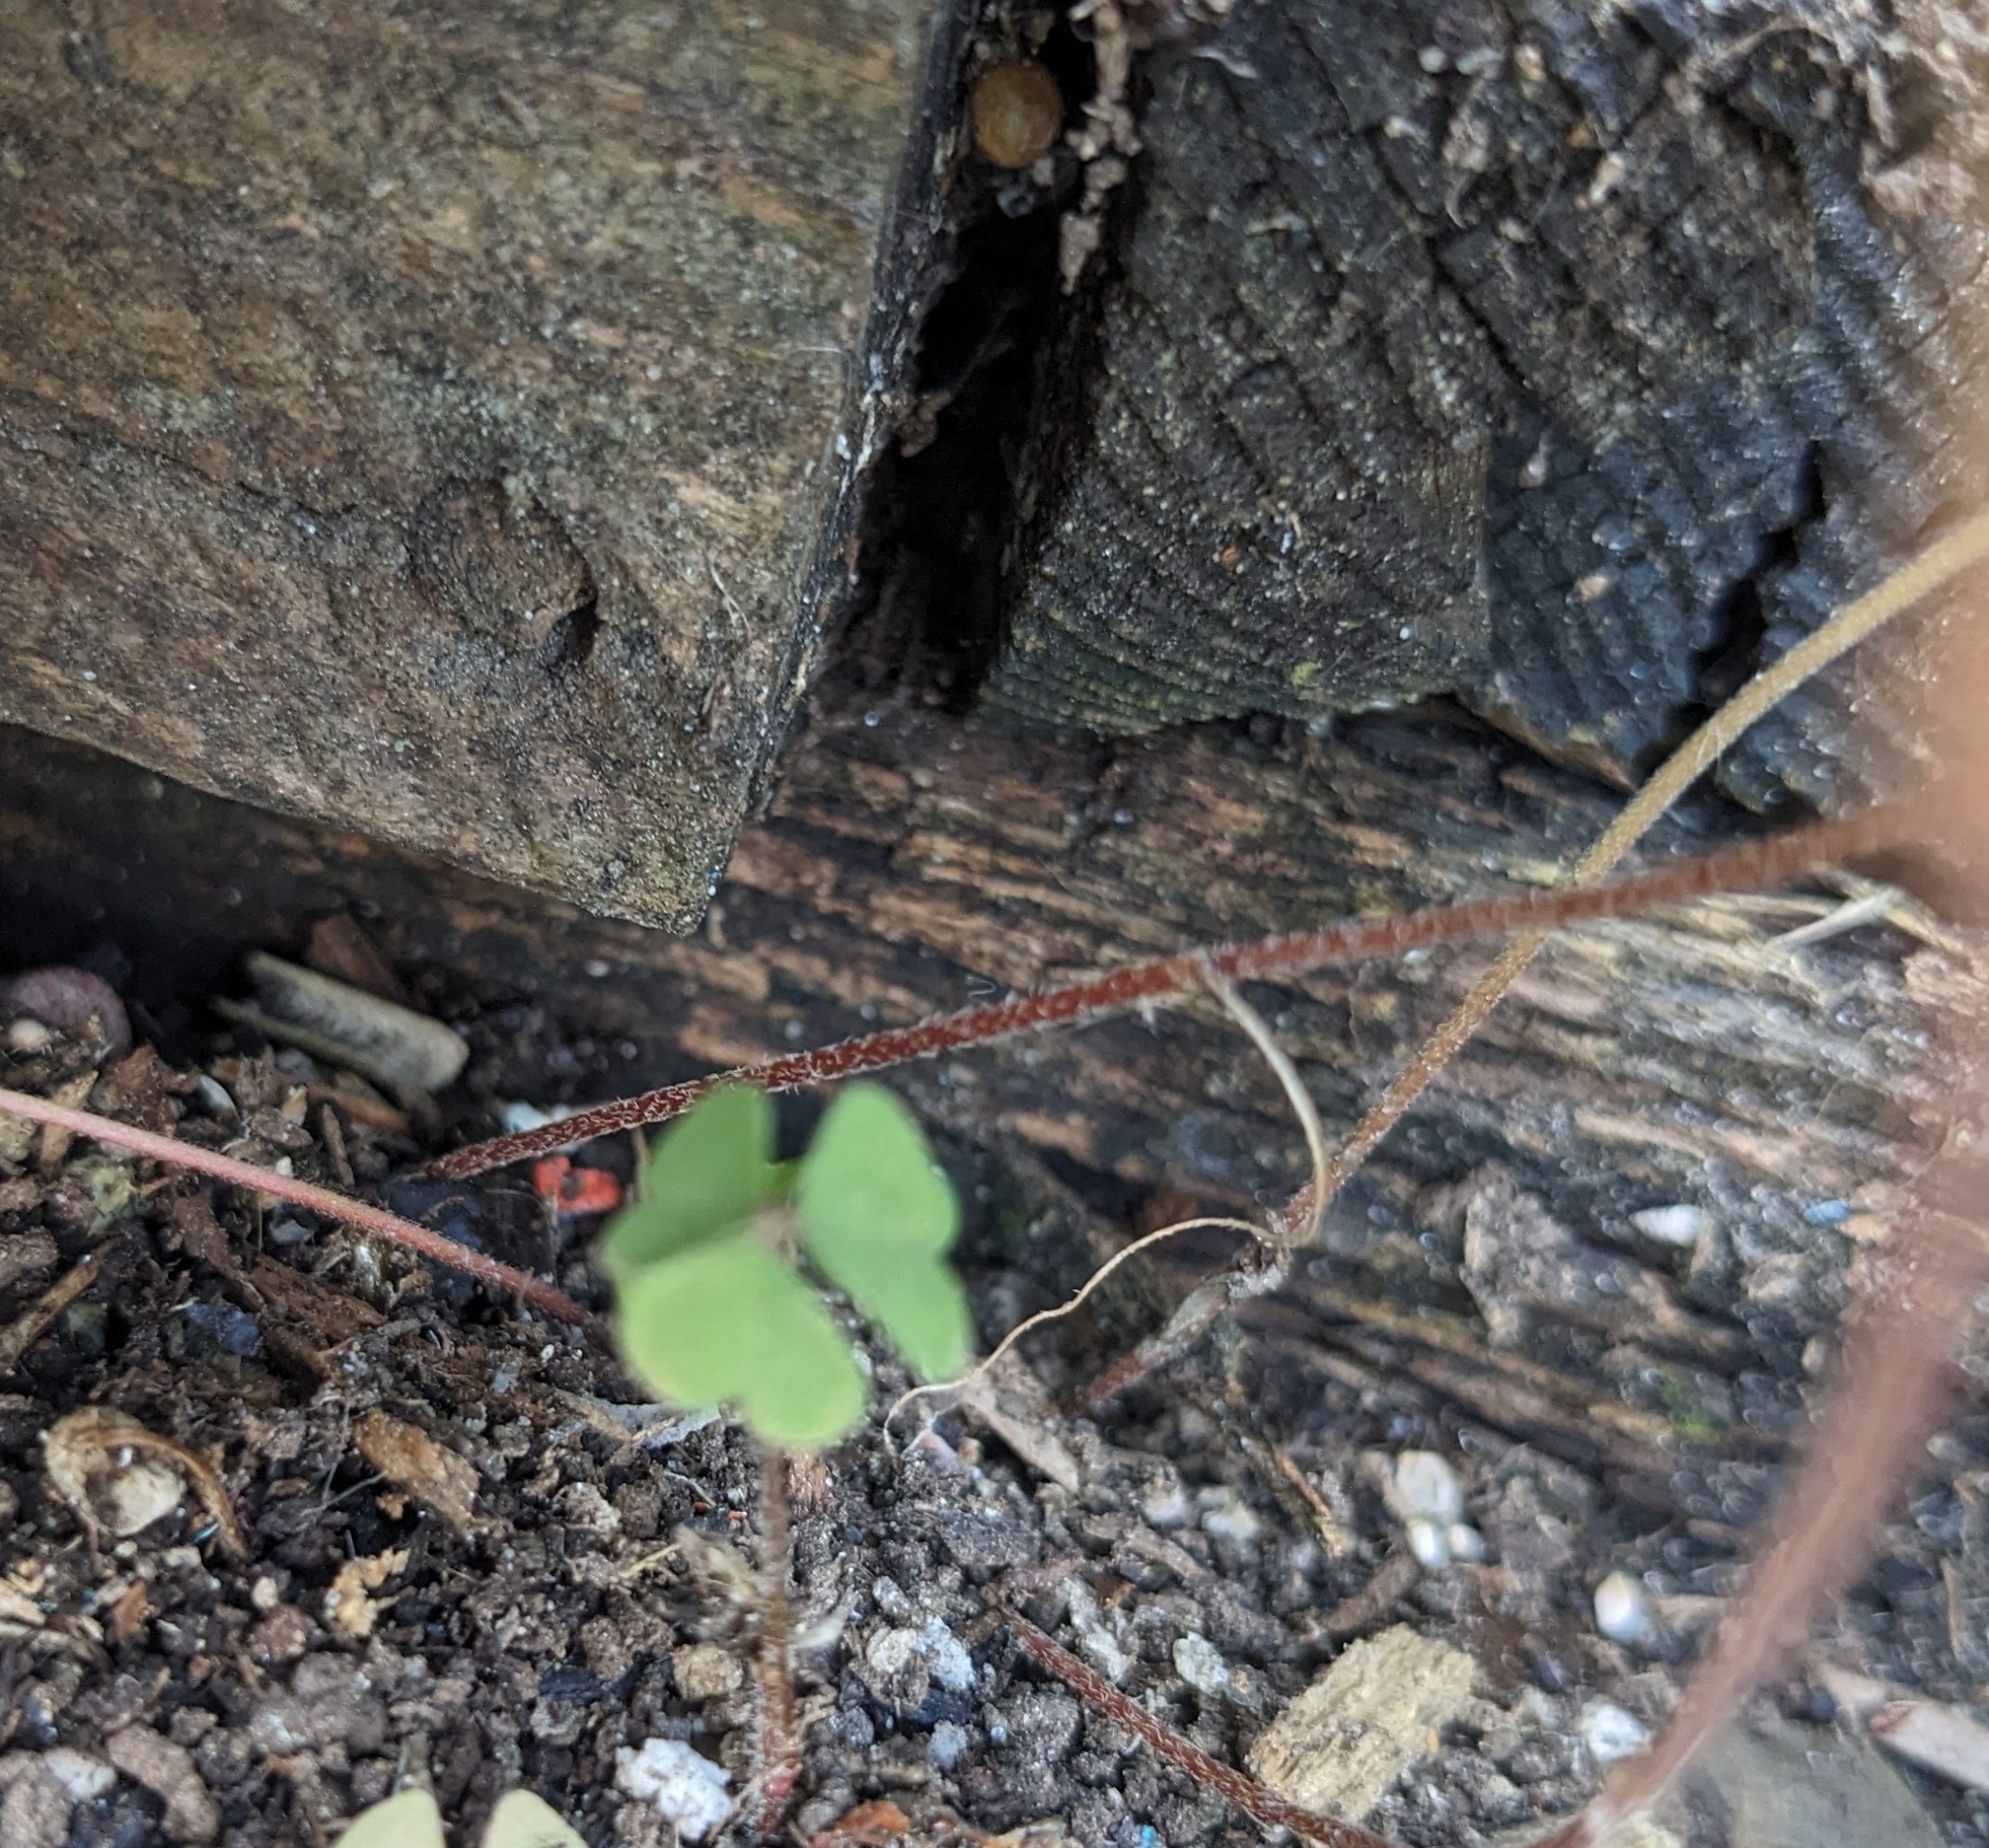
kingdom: Plantae
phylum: Tracheophyta
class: Magnoliopsida
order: Oxalidales
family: Oxalidaceae
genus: Oxalis
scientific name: Oxalis dillenii
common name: Sussex yellow-sorrel
